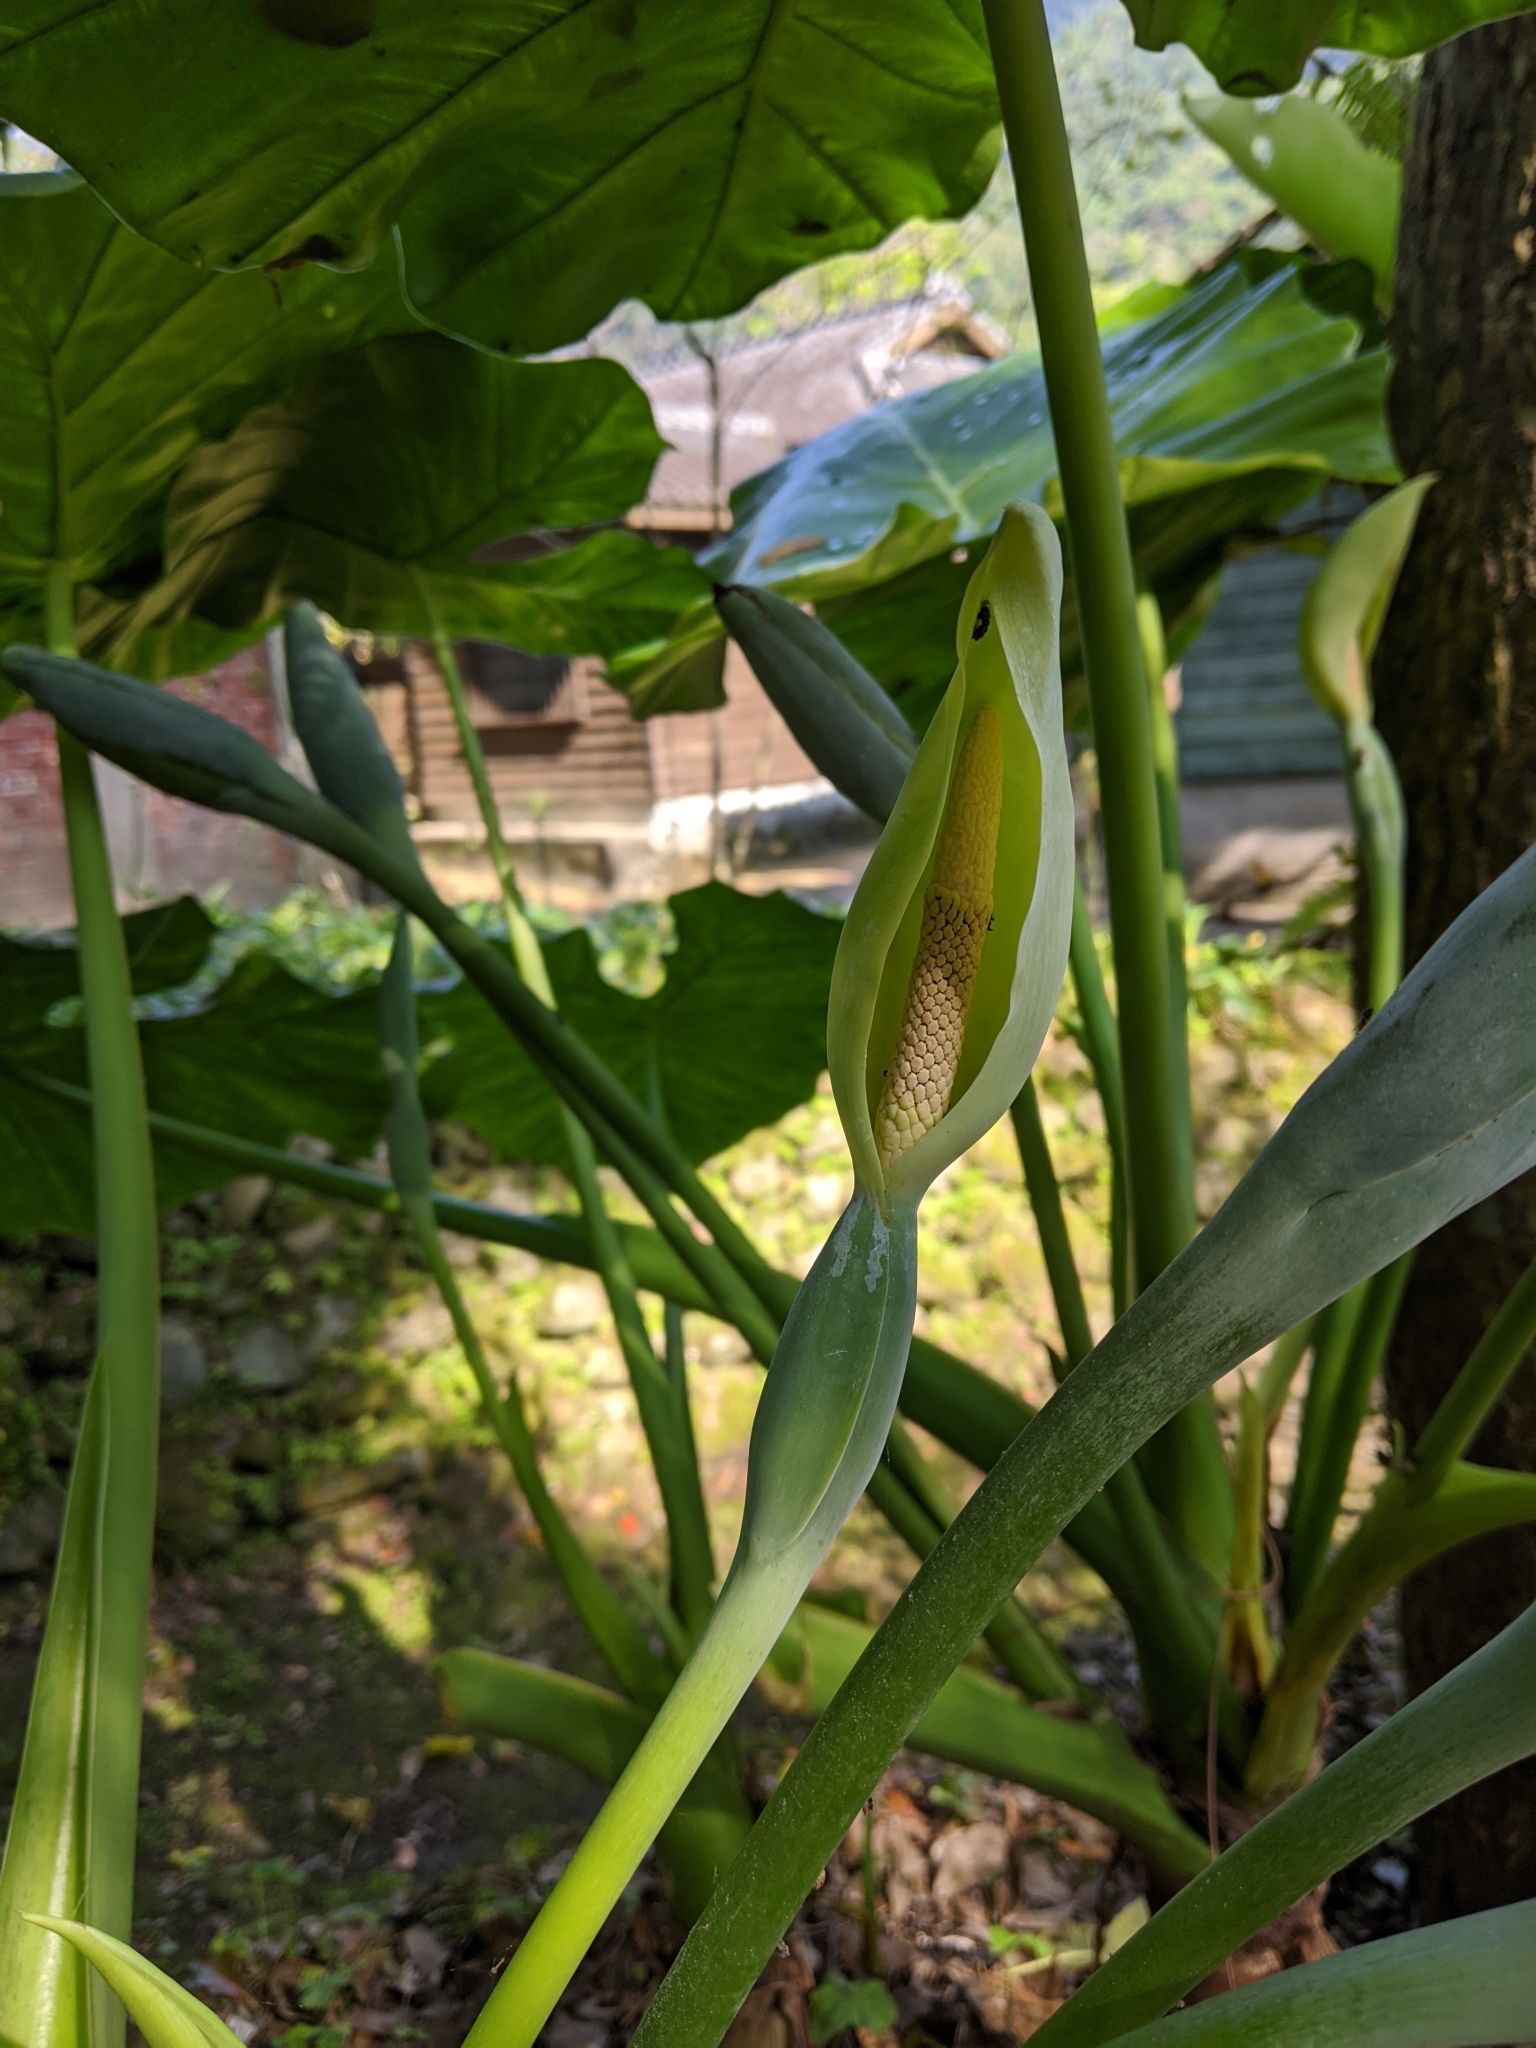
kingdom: Plantae
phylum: Tracheophyta
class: Liliopsida
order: Alismatales
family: Araceae
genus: Alocasia
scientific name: Alocasia odora
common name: Asian taro
